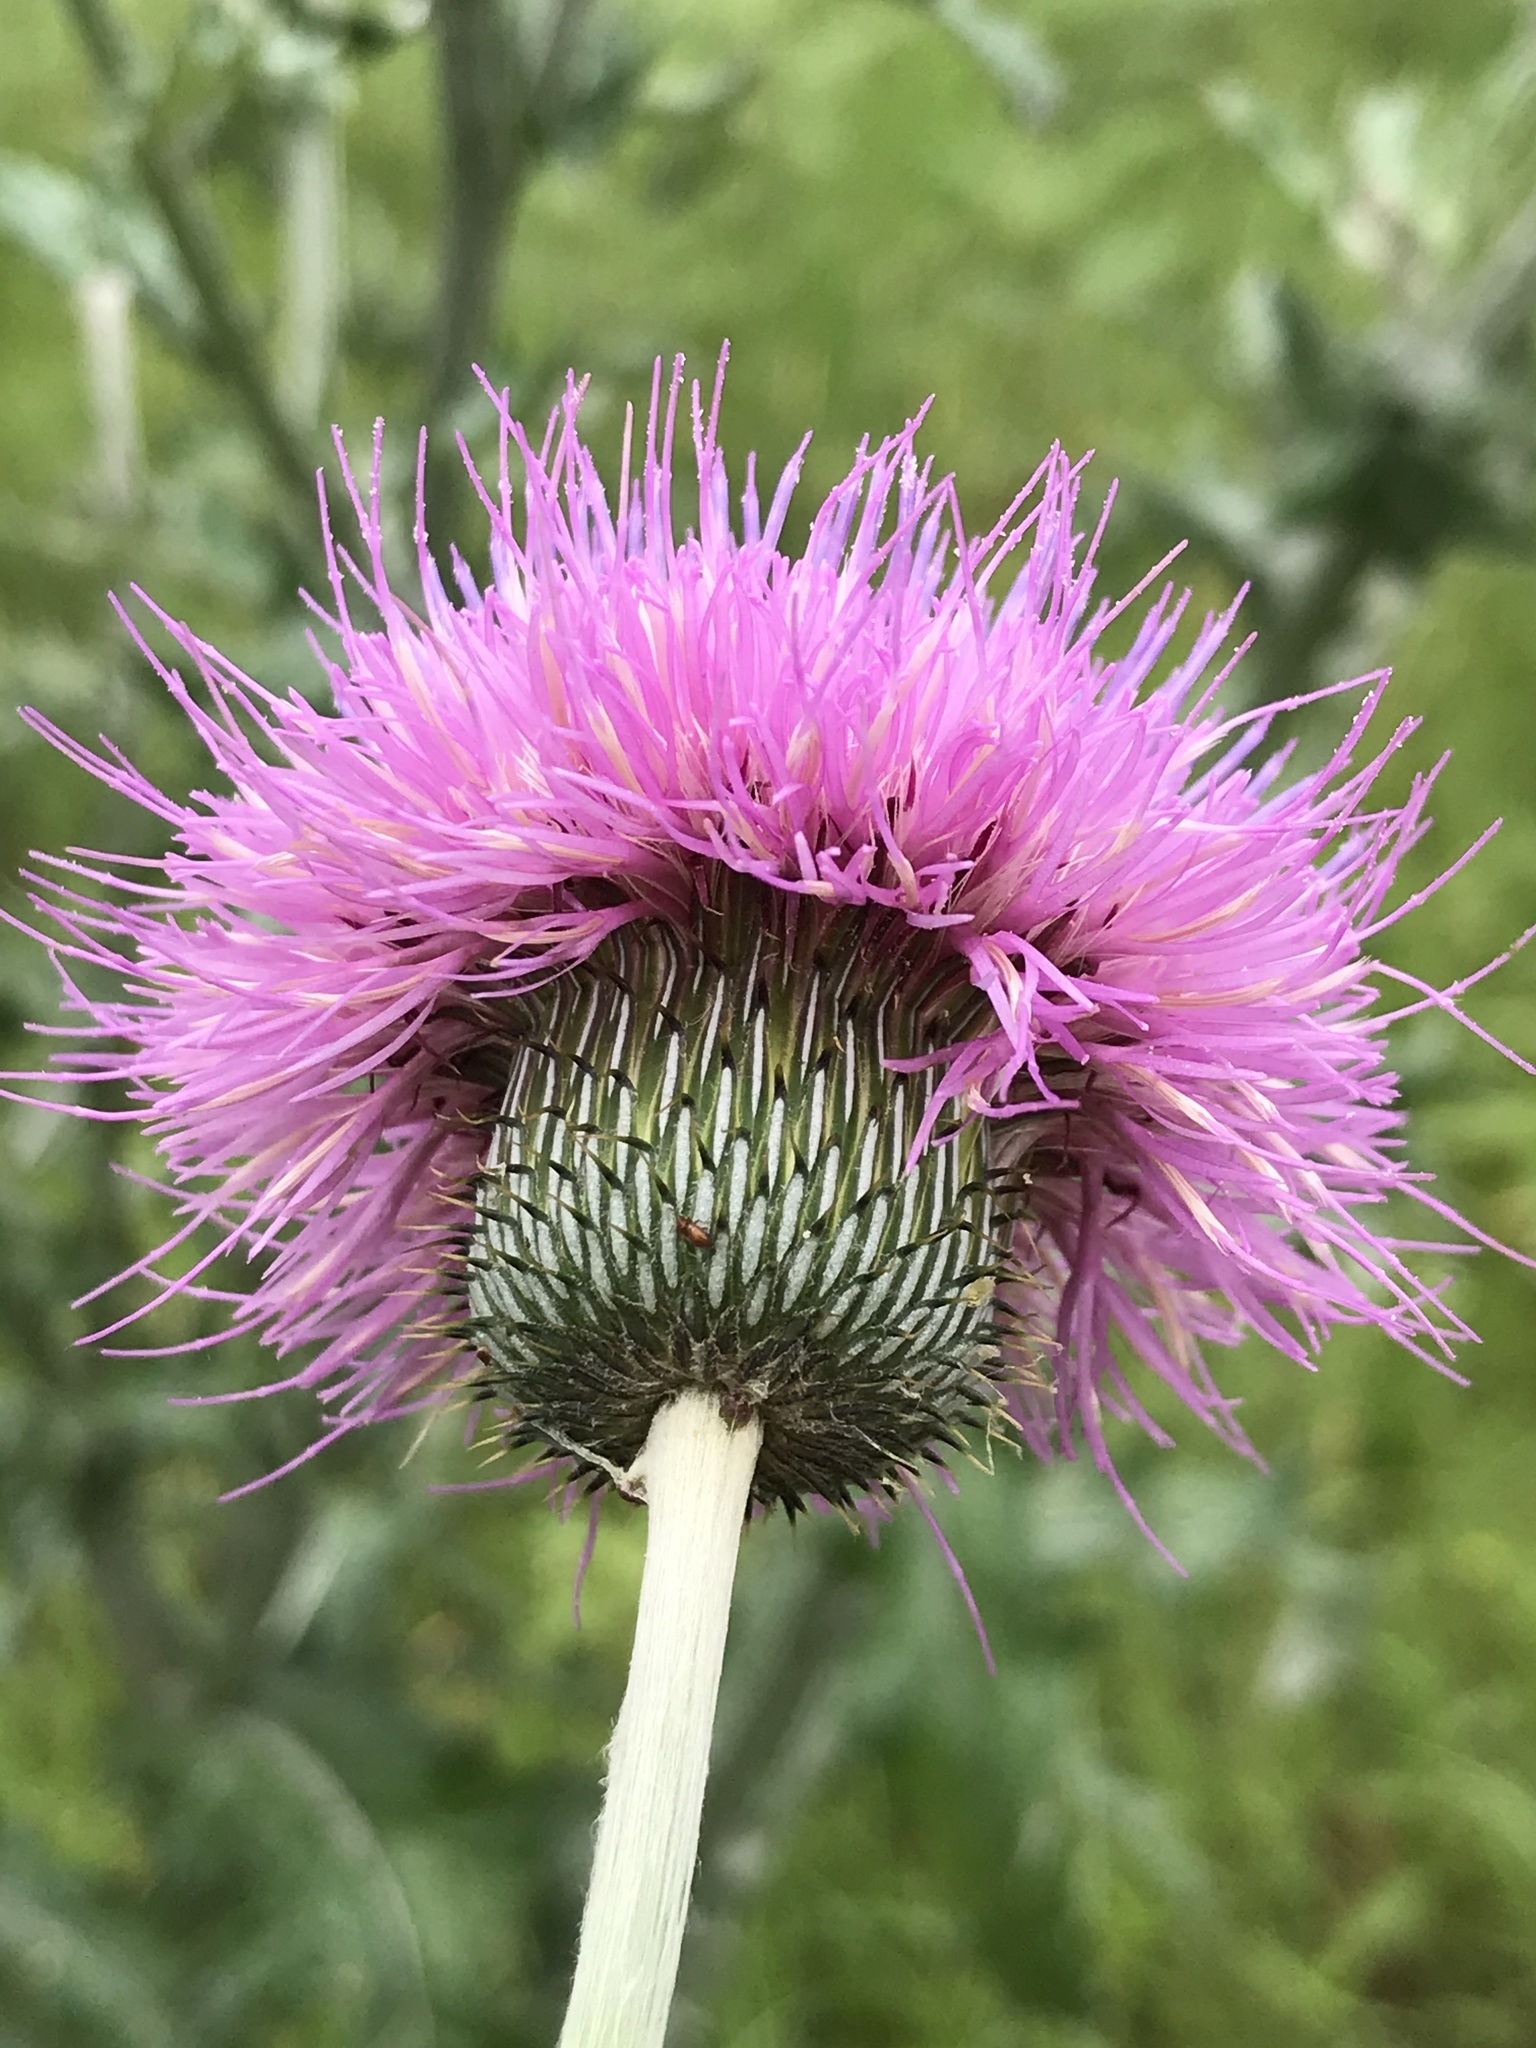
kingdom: Plantae
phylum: Tracheophyta
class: Magnoliopsida
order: Asterales
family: Asteraceae
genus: Cirsium
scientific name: Cirsium texanum
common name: Texas purple thistle
